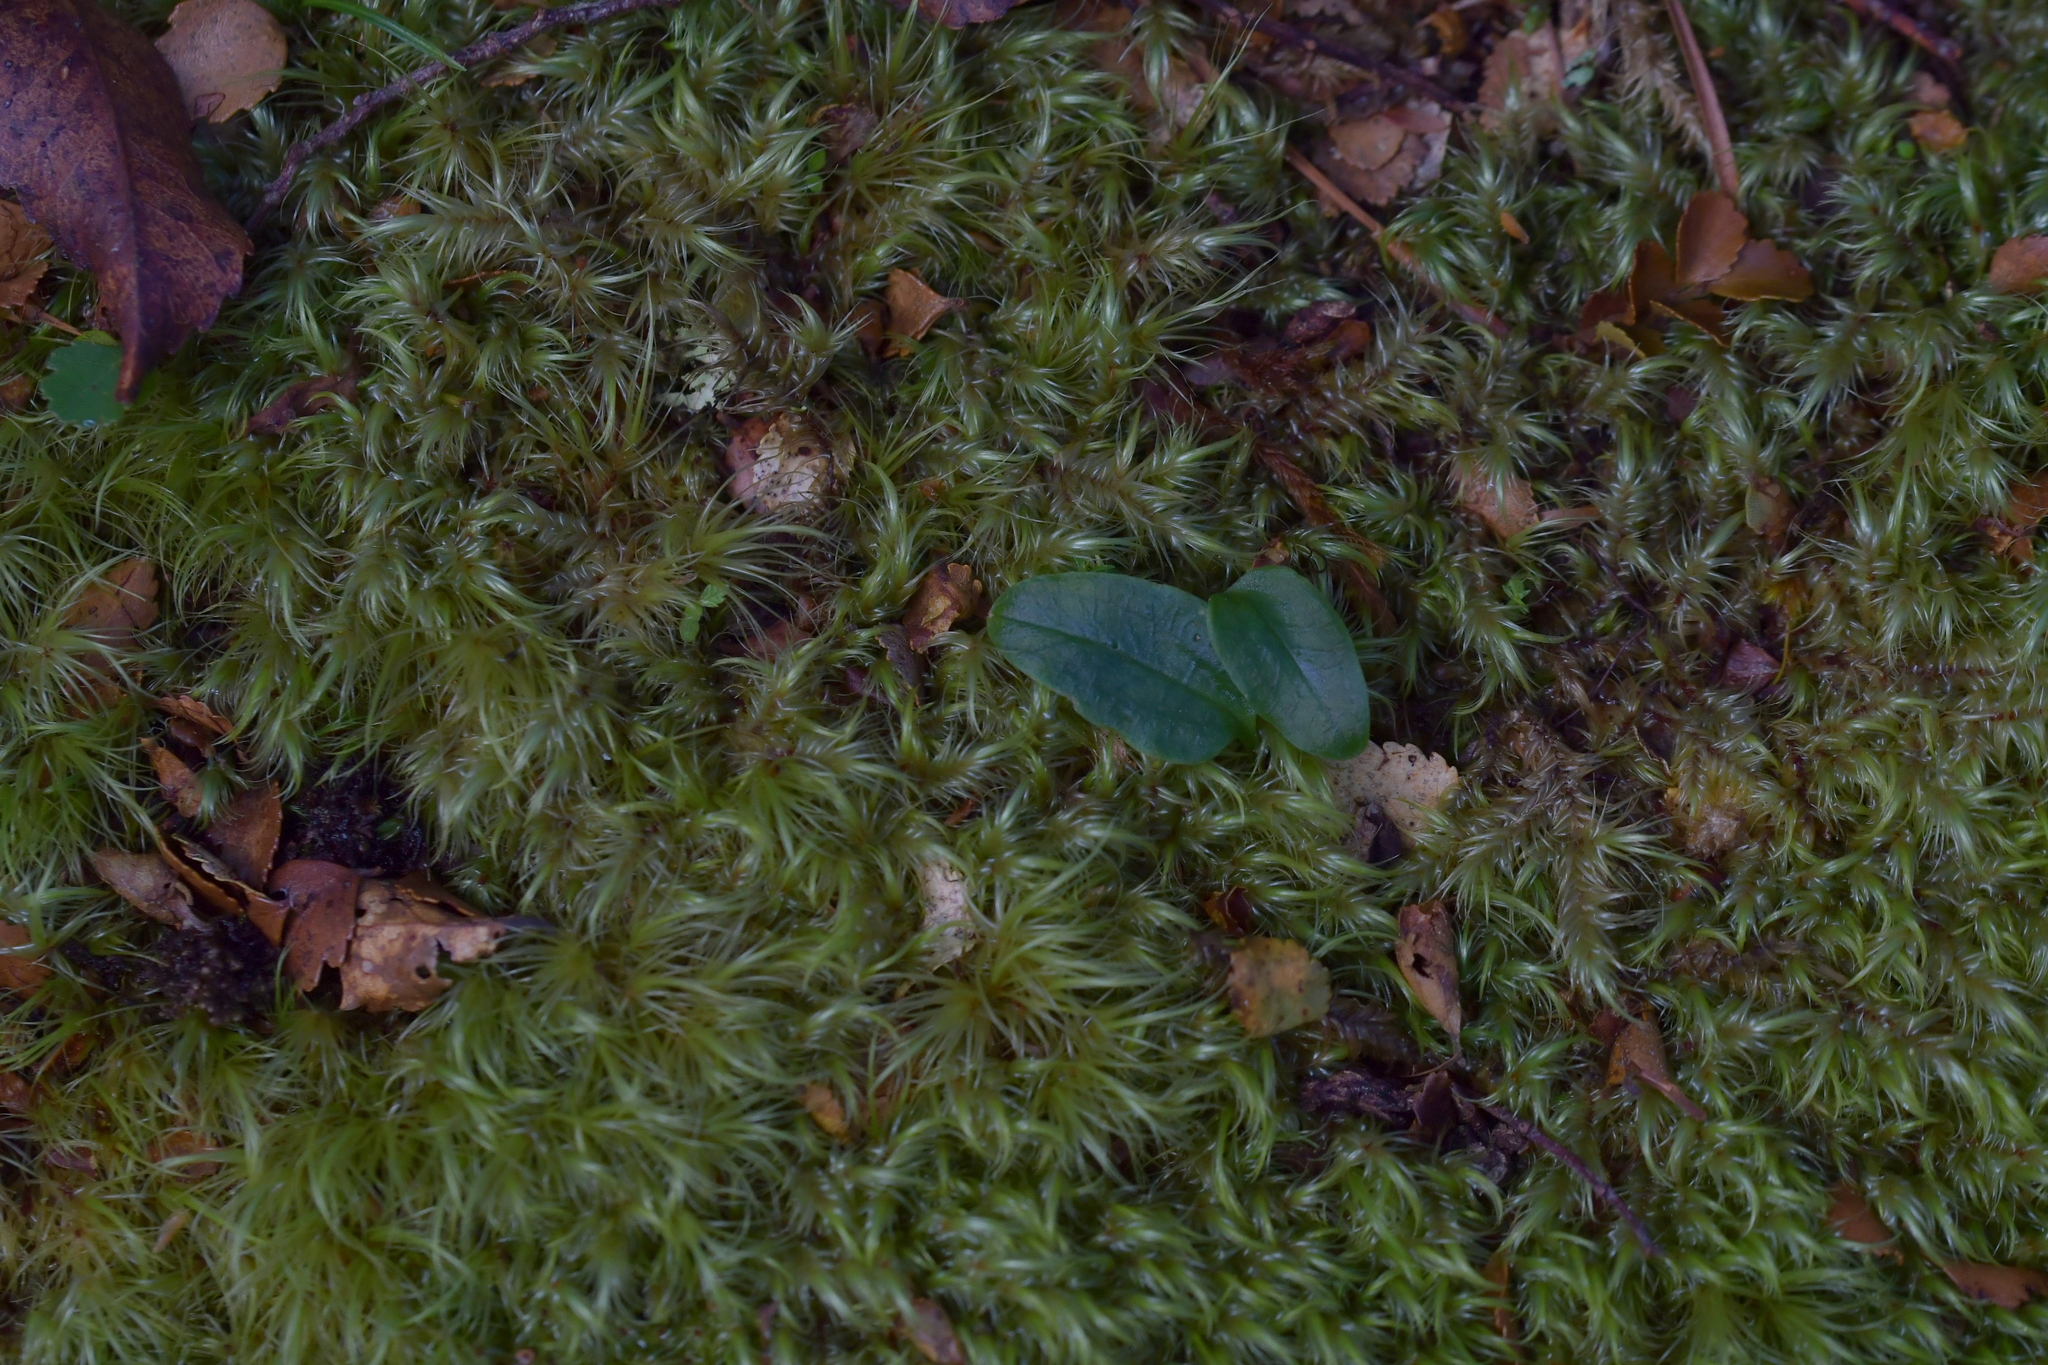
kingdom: Plantae
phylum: Tracheophyta
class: Liliopsida
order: Asparagales
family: Orchidaceae
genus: Adenochilus
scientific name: Adenochilus gracilis
